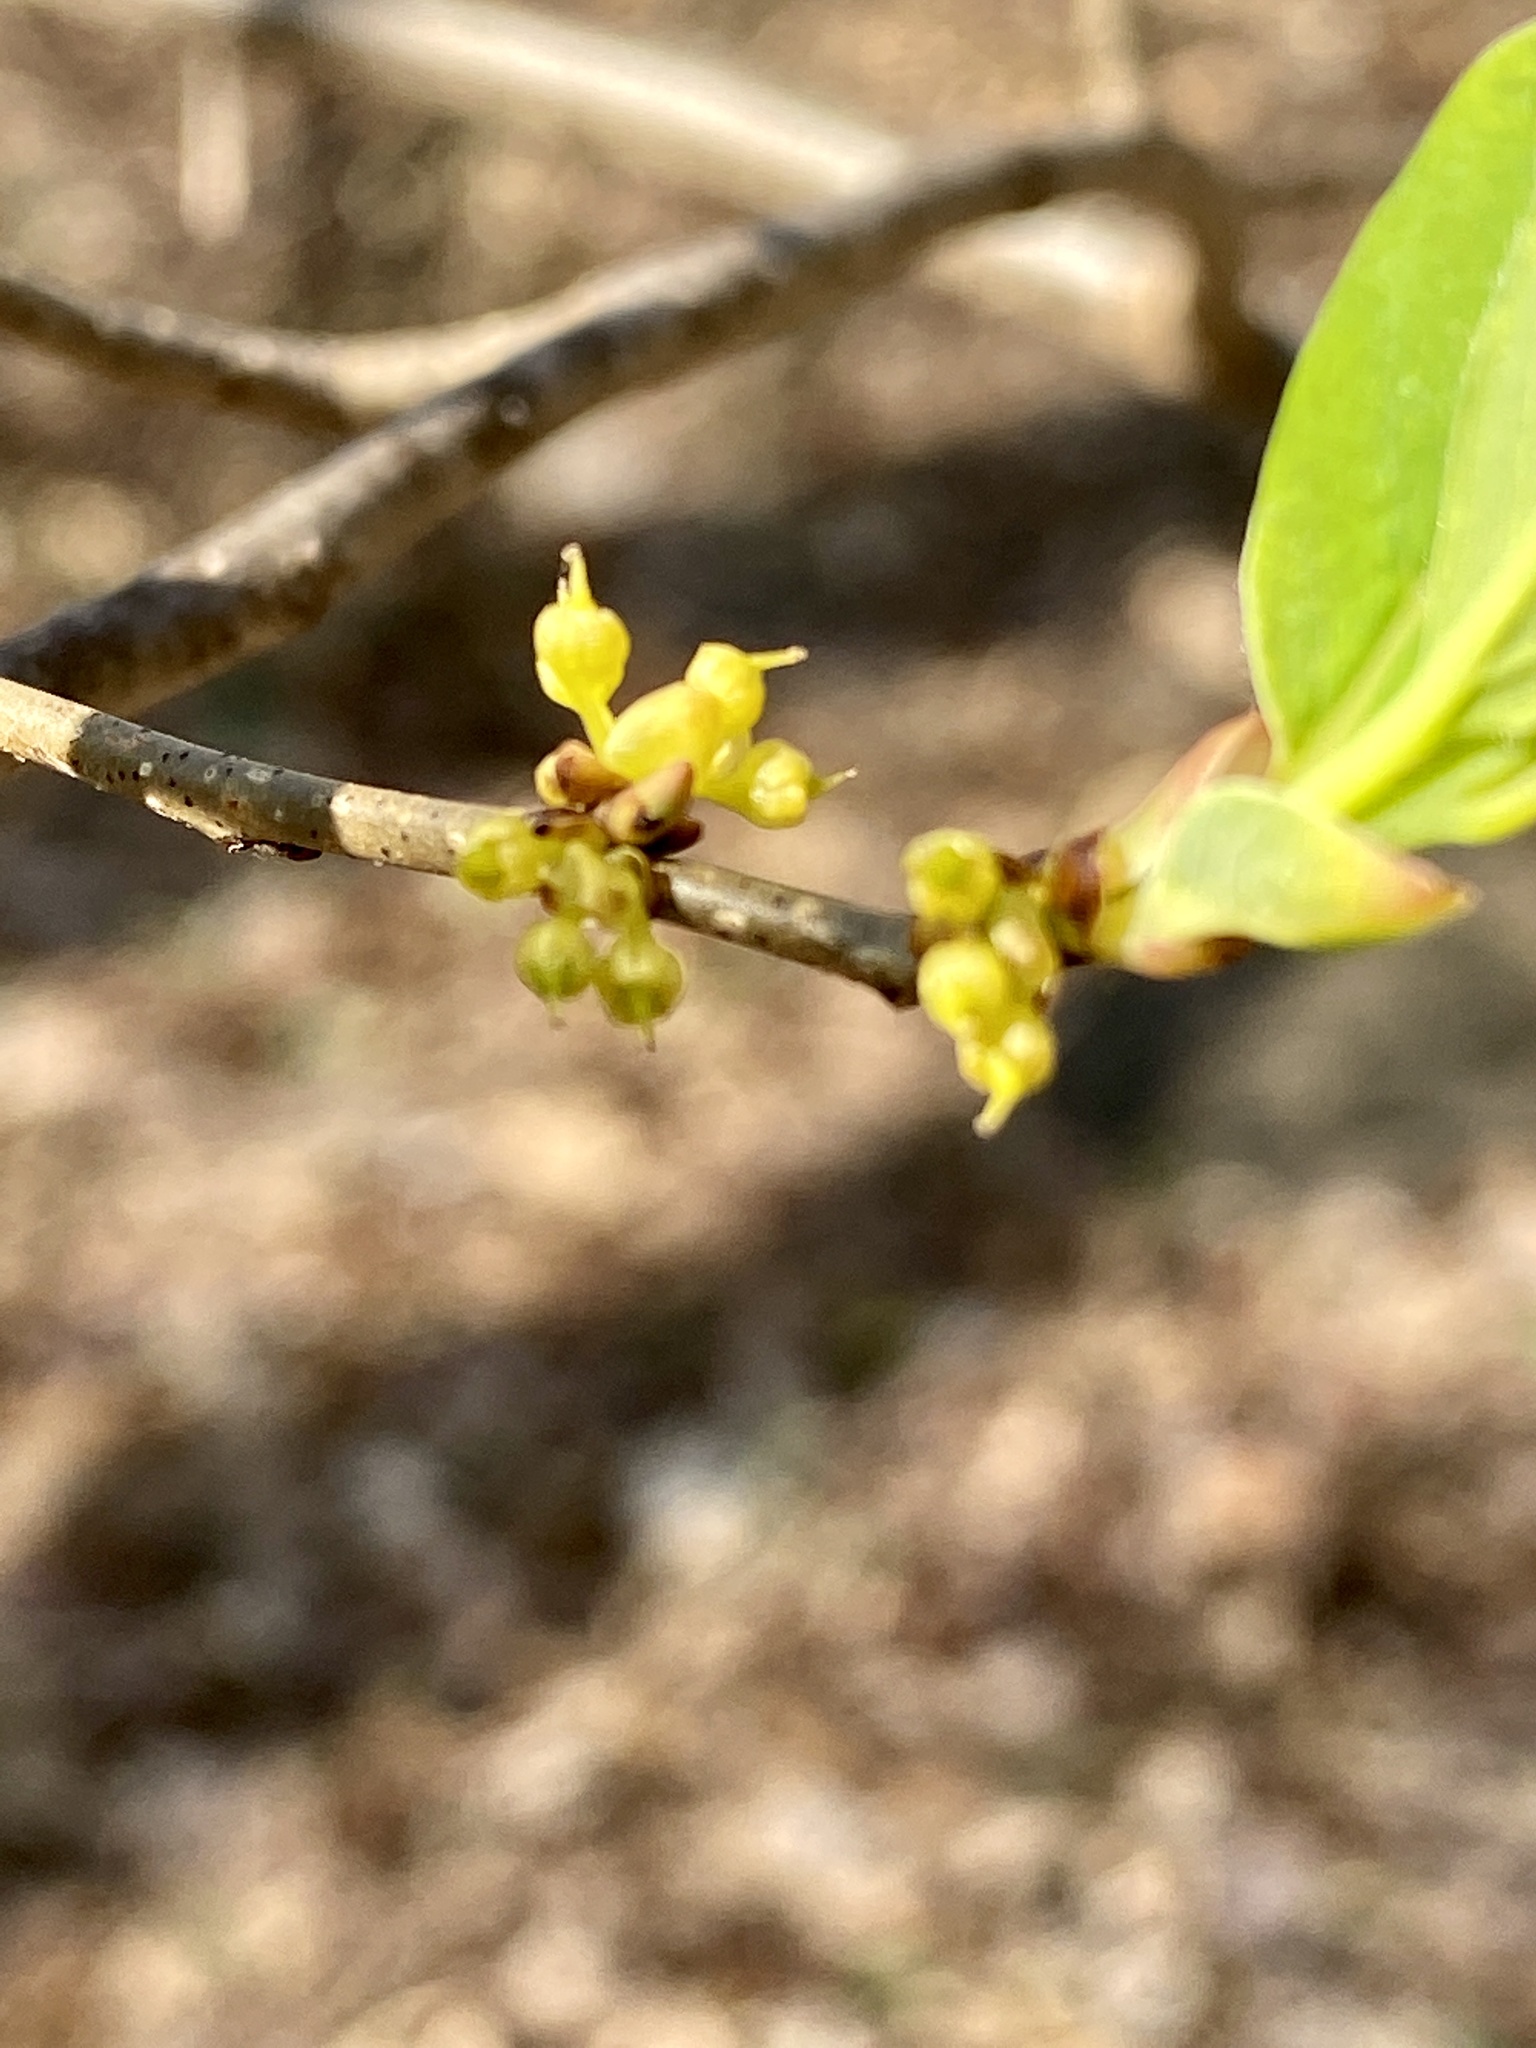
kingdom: Plantae
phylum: Tracheophyta
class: Magnoliopsida
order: Laurales
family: Lauraceae
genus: Lindera
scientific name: Lindera benzoin
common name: Spicebush
